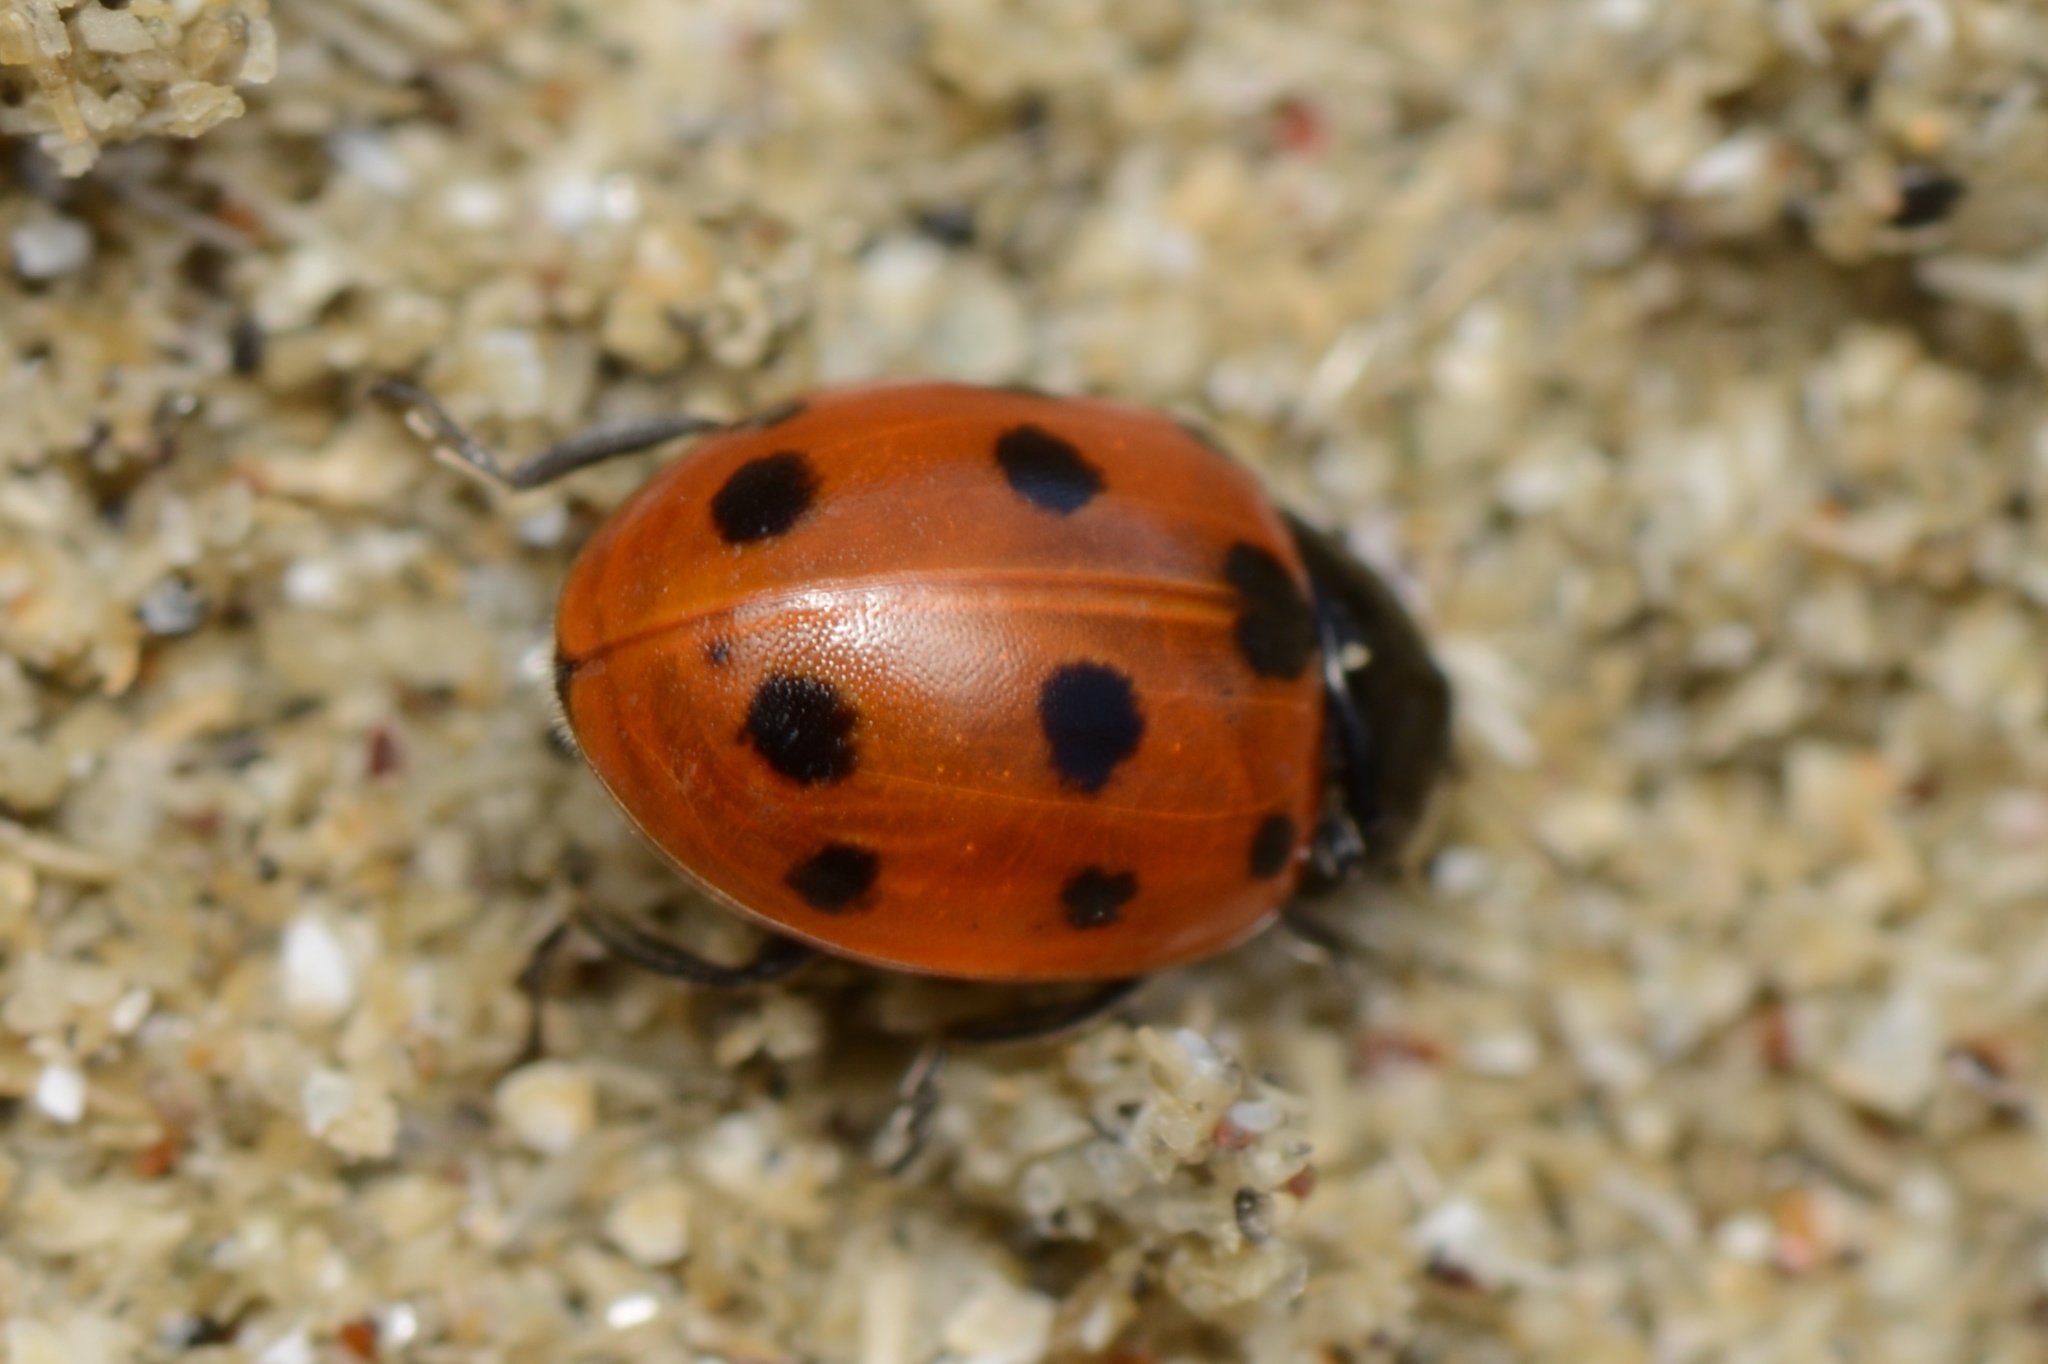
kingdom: Animalia
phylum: Arthropoda
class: Insecta
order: Coleoptera
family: Coccinellidae
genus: Coccinella
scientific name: Coccinella undecimpunctata
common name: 11-spot ladybird
